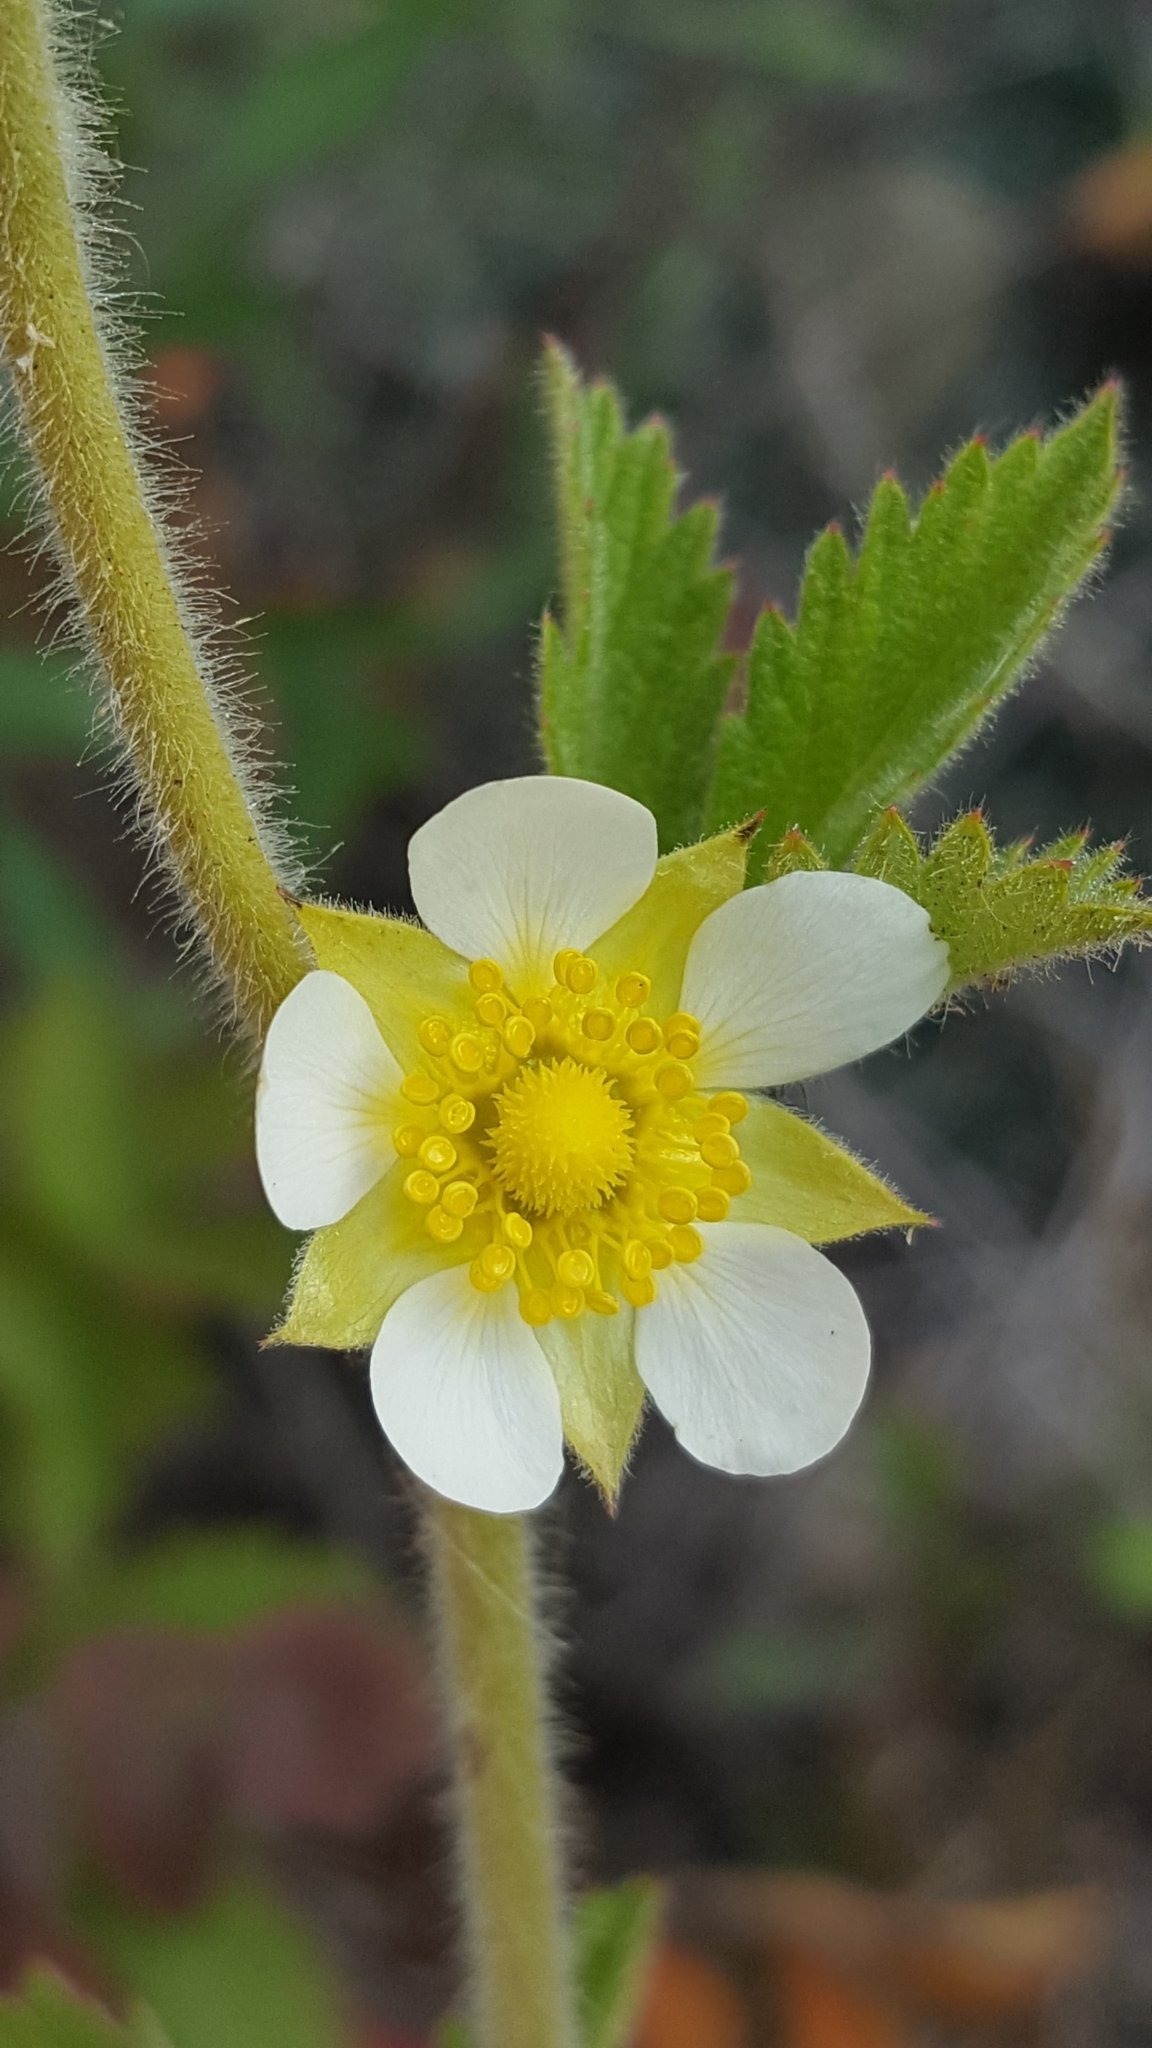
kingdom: Plantae
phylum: Tracheophyta
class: Magnoliopsida
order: Rosales
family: Rosaceae
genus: Drymocallis
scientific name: Drymocallis arguta
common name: Tall cinquefoil
